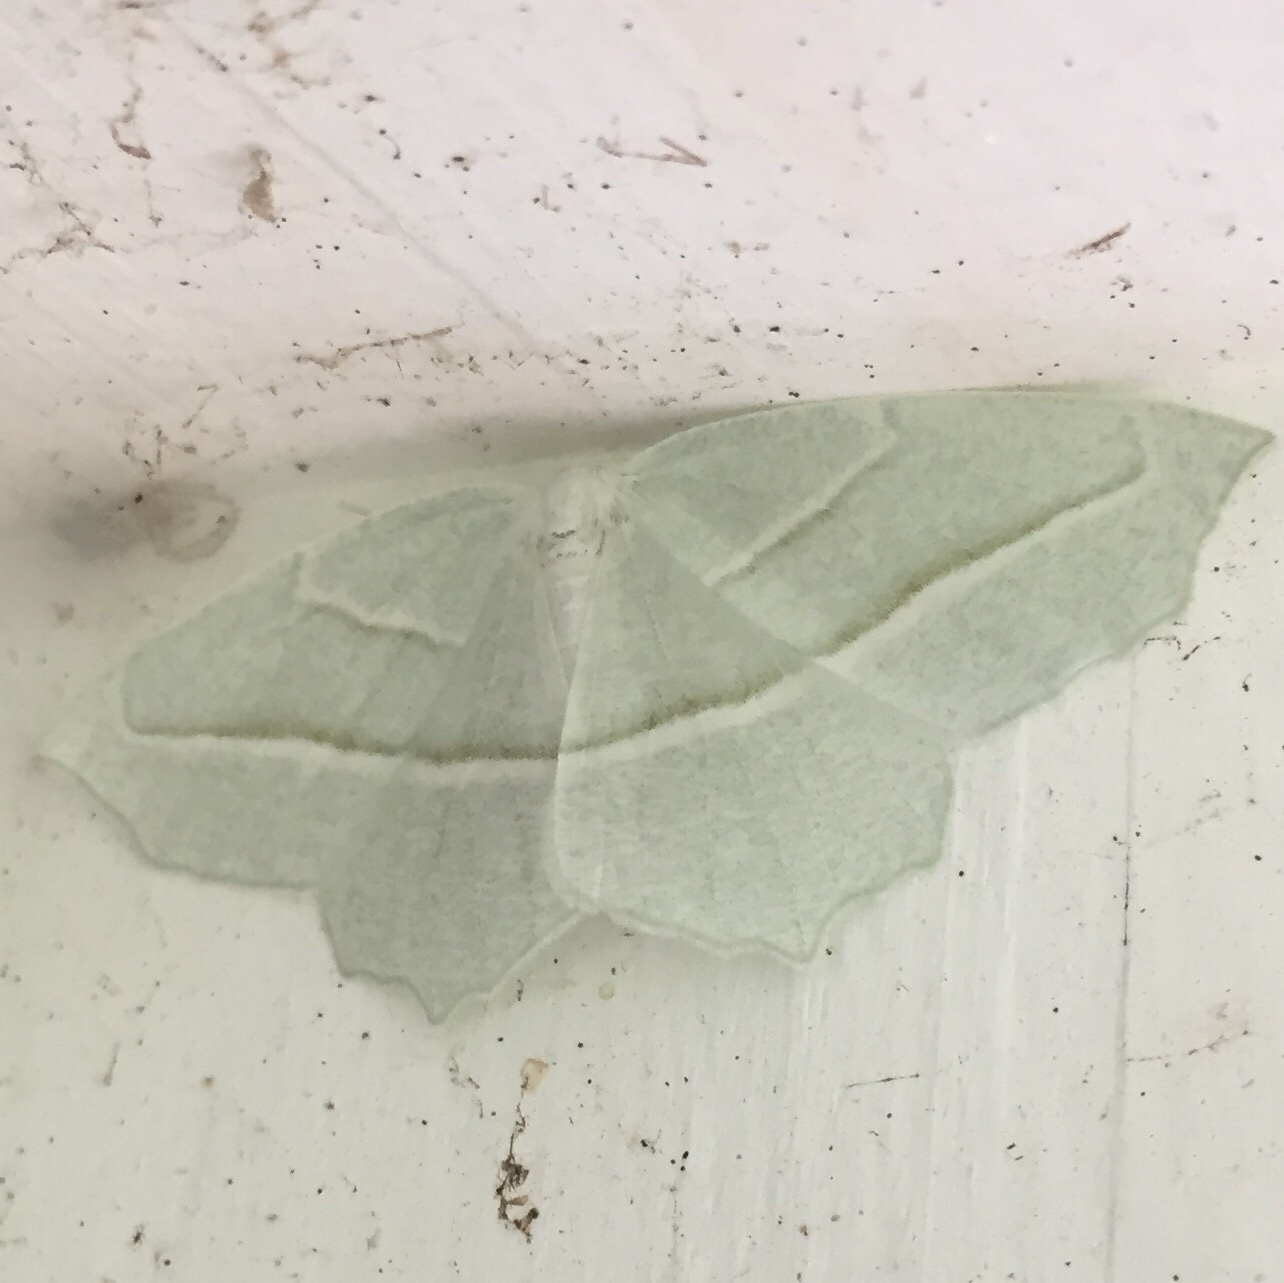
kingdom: Animalia
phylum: Arthropoda
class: Insecta
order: Lepidoptera
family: Geometridae
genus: Campaea
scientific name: Campaea perlata
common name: Fringed looper
